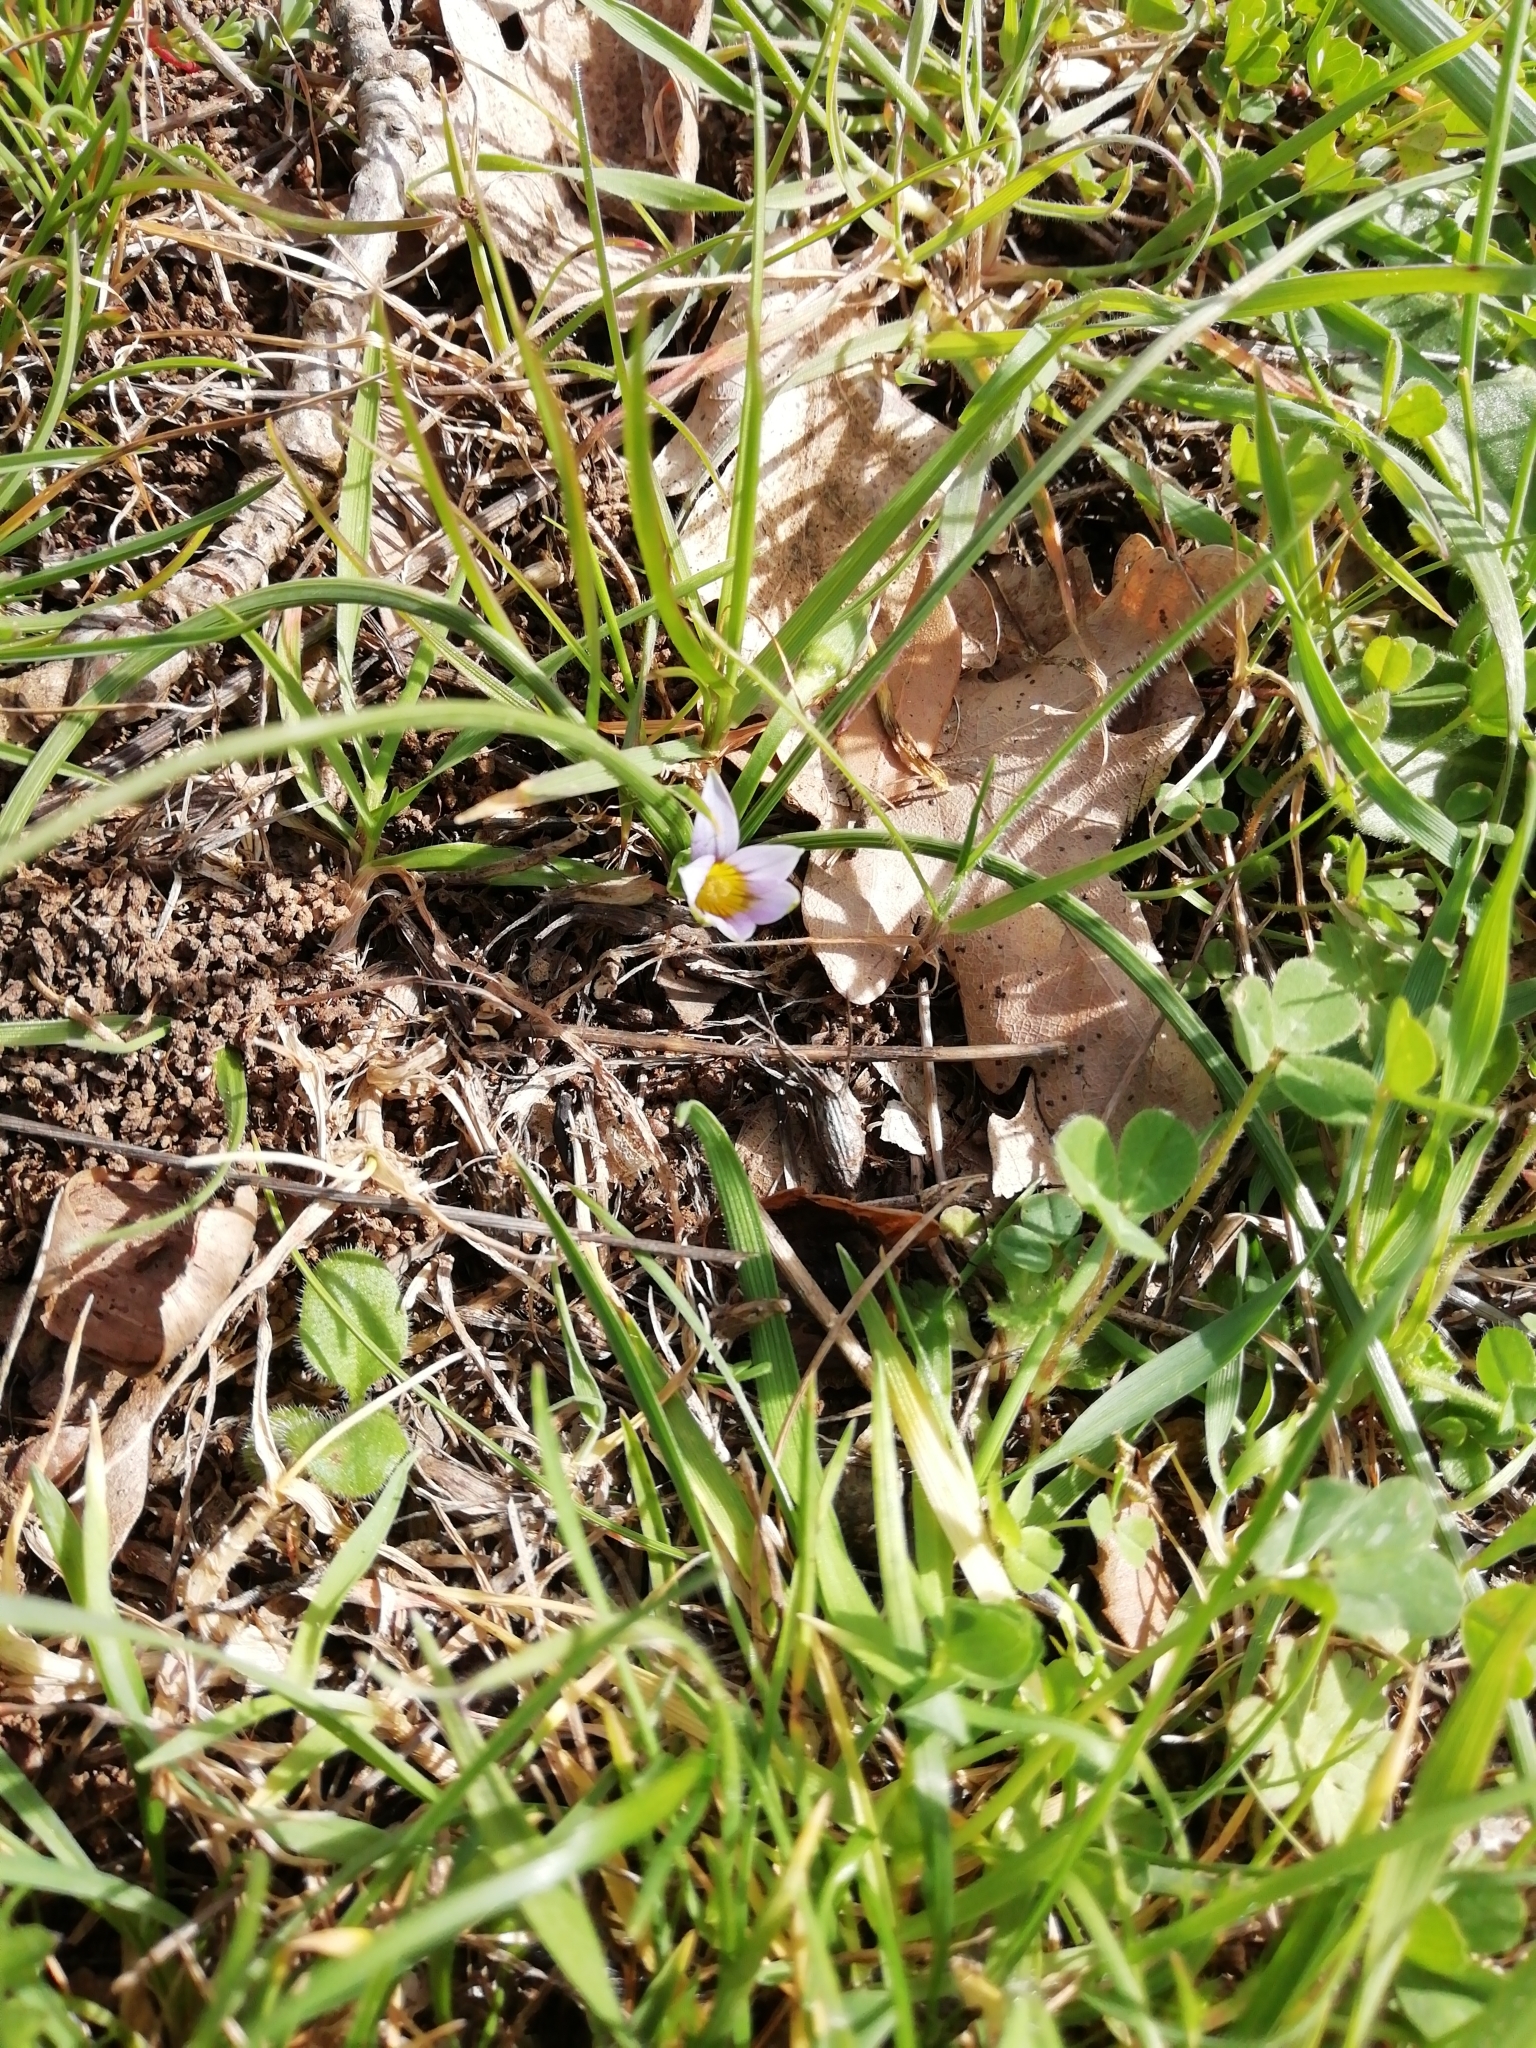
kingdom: Plantae
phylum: Tracheophyta
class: Liliopsida
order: Asparagales
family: Iridaceae
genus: Romulea
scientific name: Romulea ramiflora
